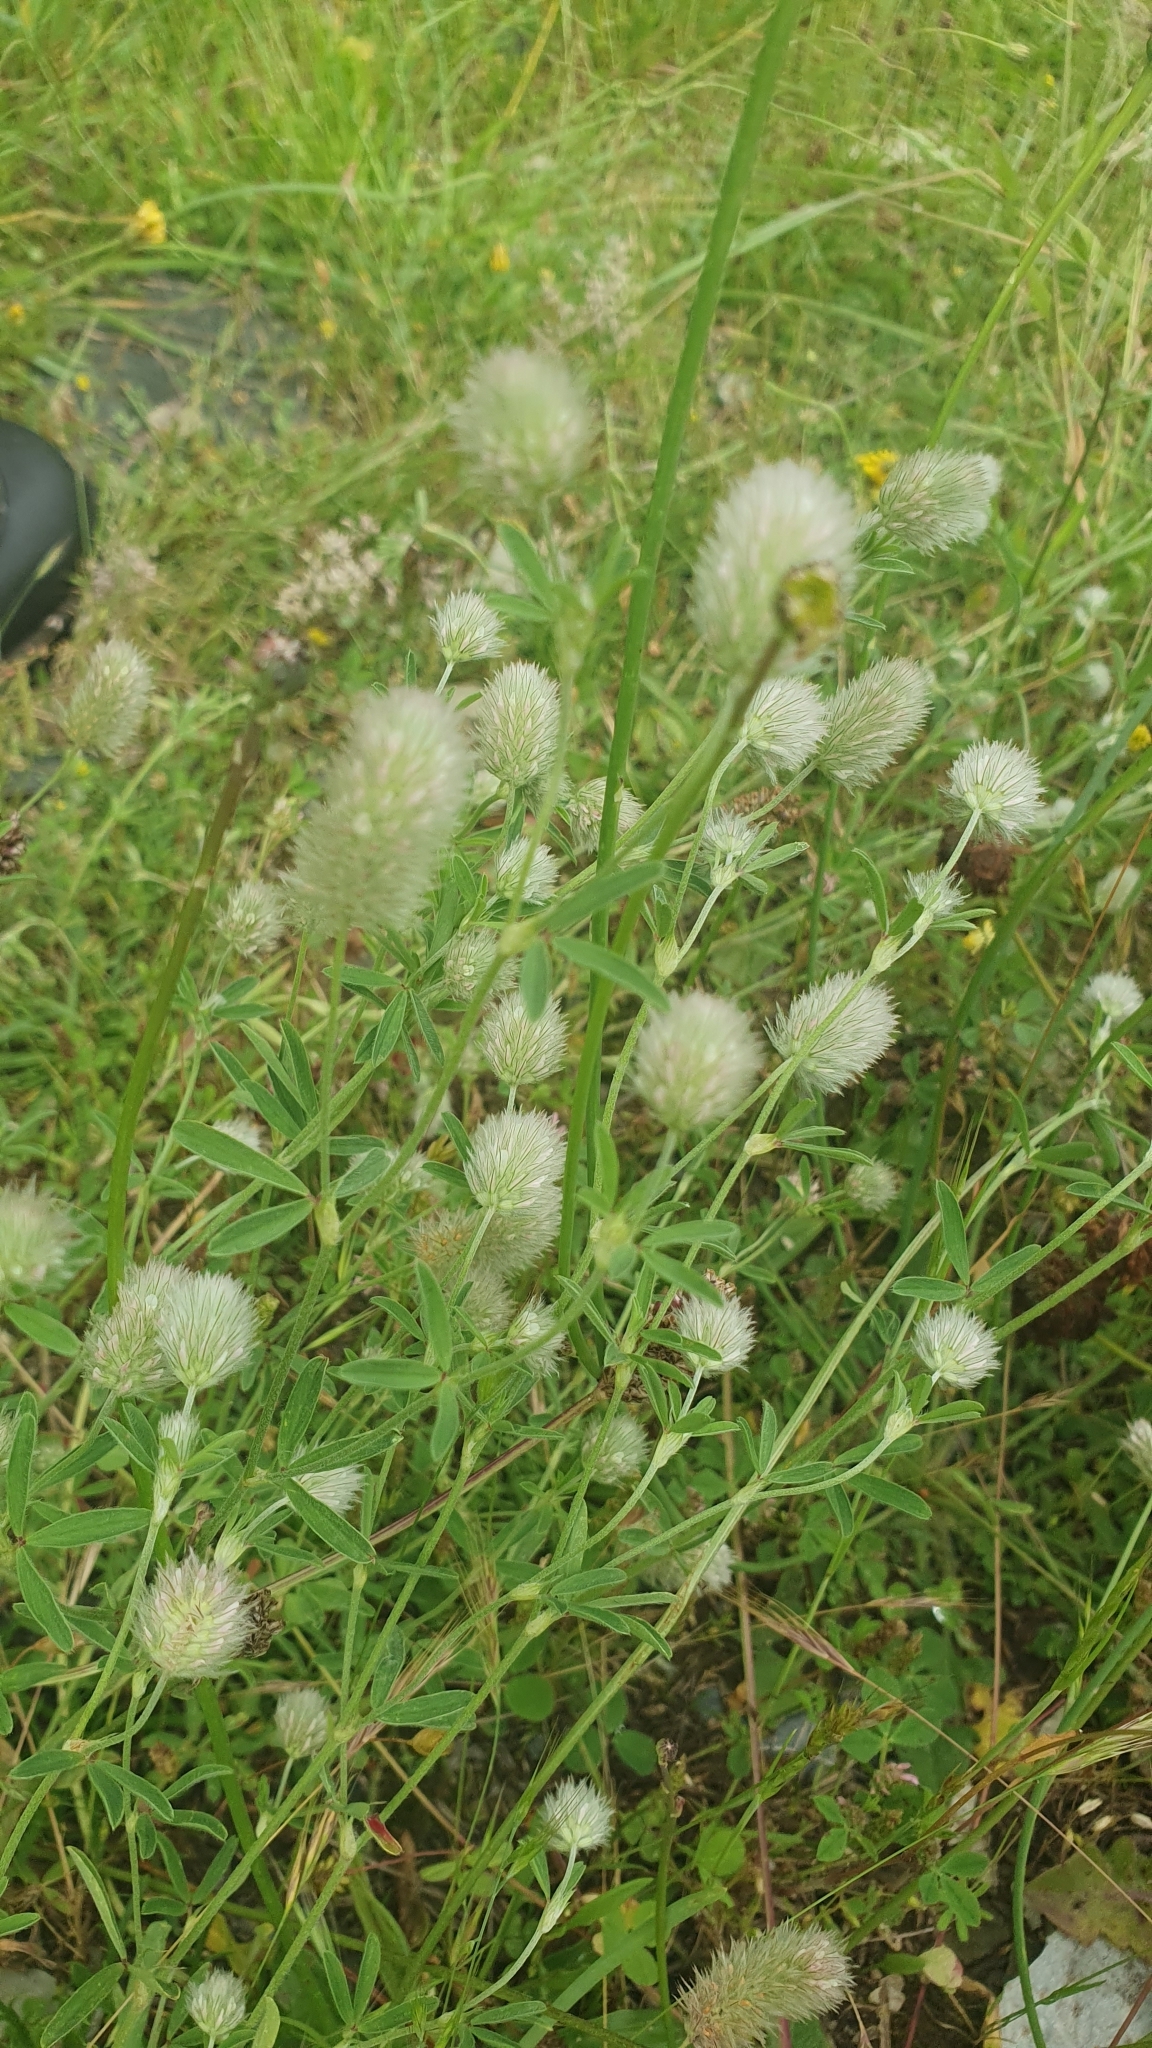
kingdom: Plantae
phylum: Tracheophyta
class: Magnoliopsida
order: Fabales
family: Fabaceae
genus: Trifolium
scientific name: Trifolium arvense
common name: Hare's-foot clover
